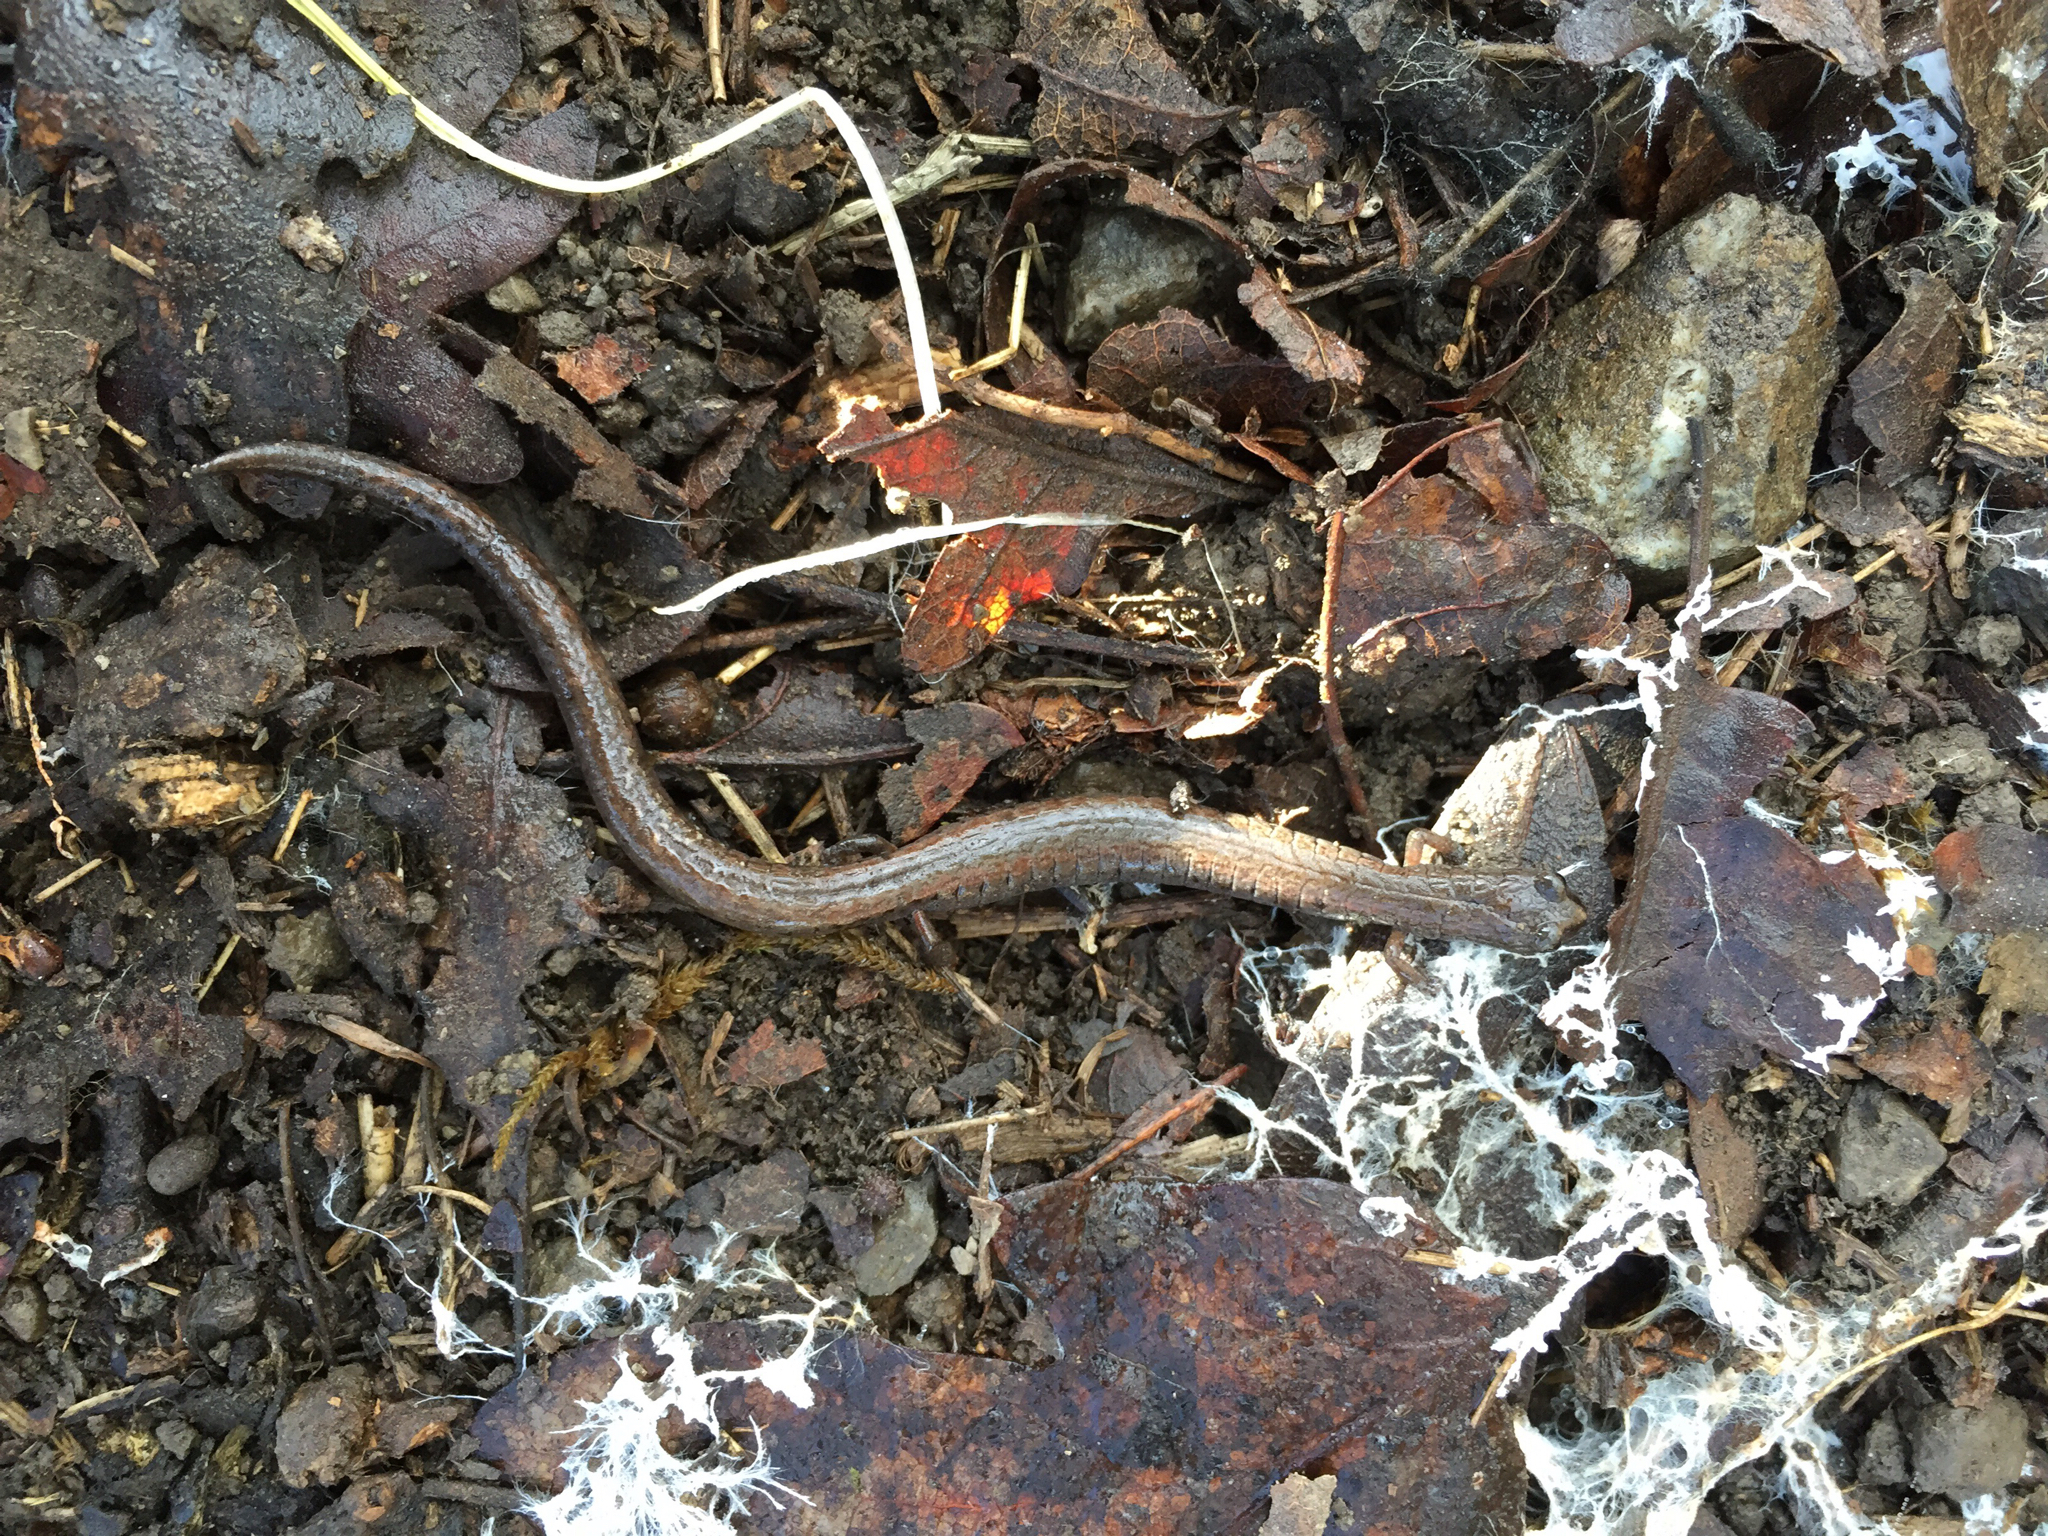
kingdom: Animalia
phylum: Chordata
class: Amphibia
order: Caudata
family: Plethodontidae
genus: Batrachoseps
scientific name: Batrachoseps attenuatus
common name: California slender salamander
